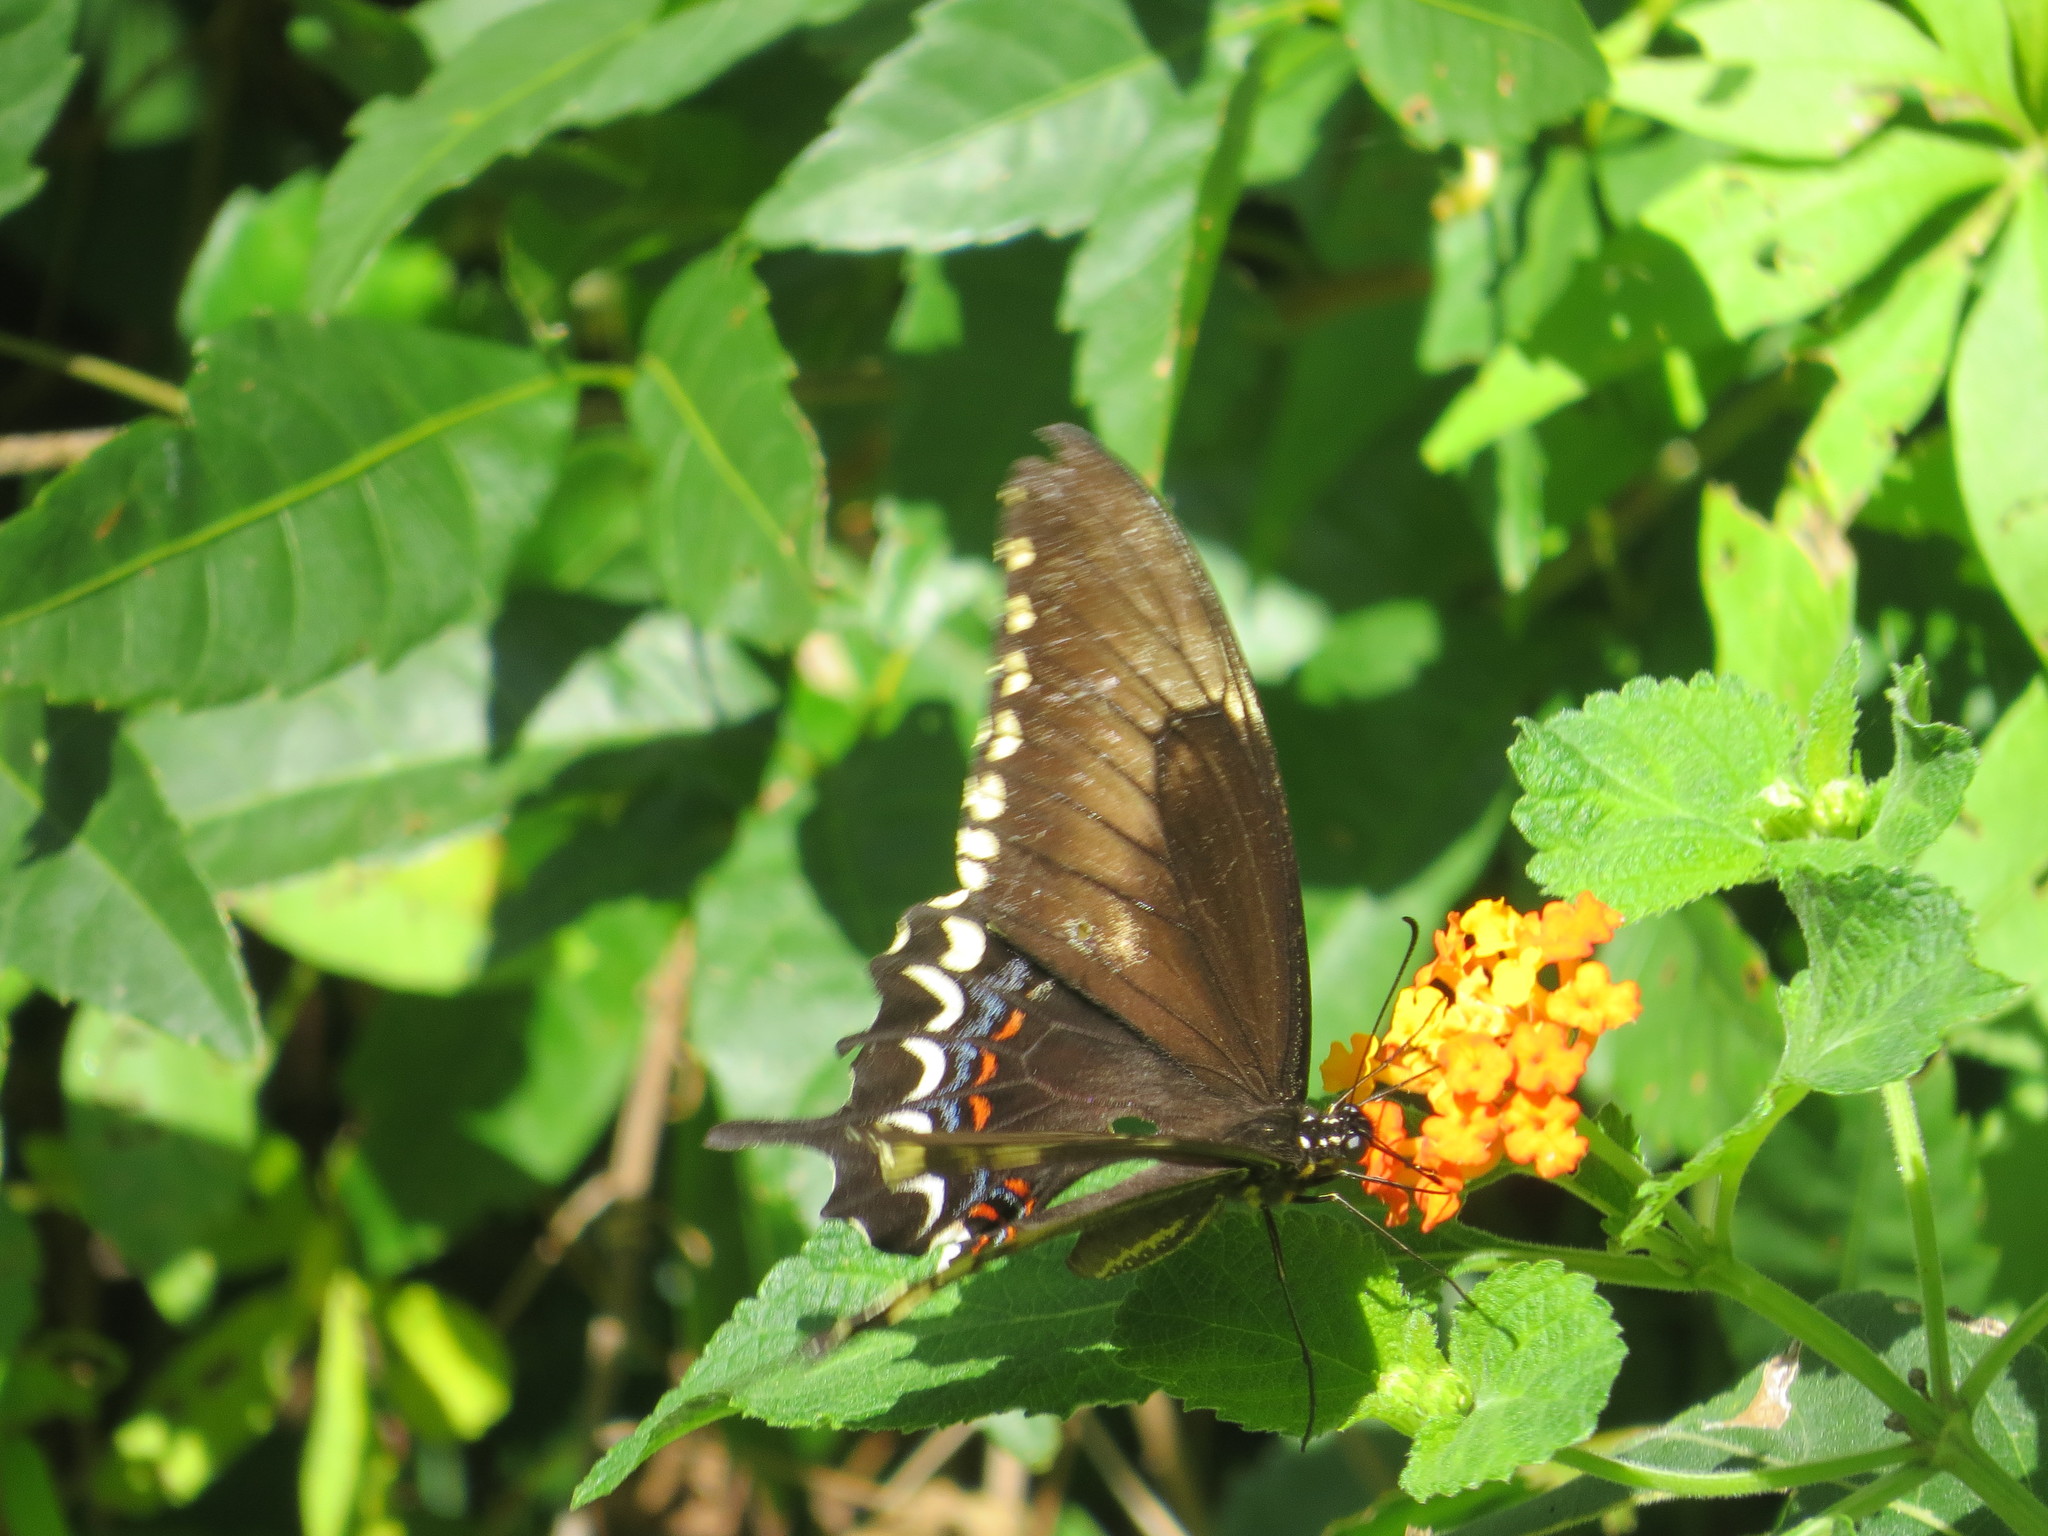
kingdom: Animalia
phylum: Arthropoda
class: Insecta
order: Lepidoptera
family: Papilionidae
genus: Papilio
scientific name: Papilio astyalus
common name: Astyalus swallowtail
